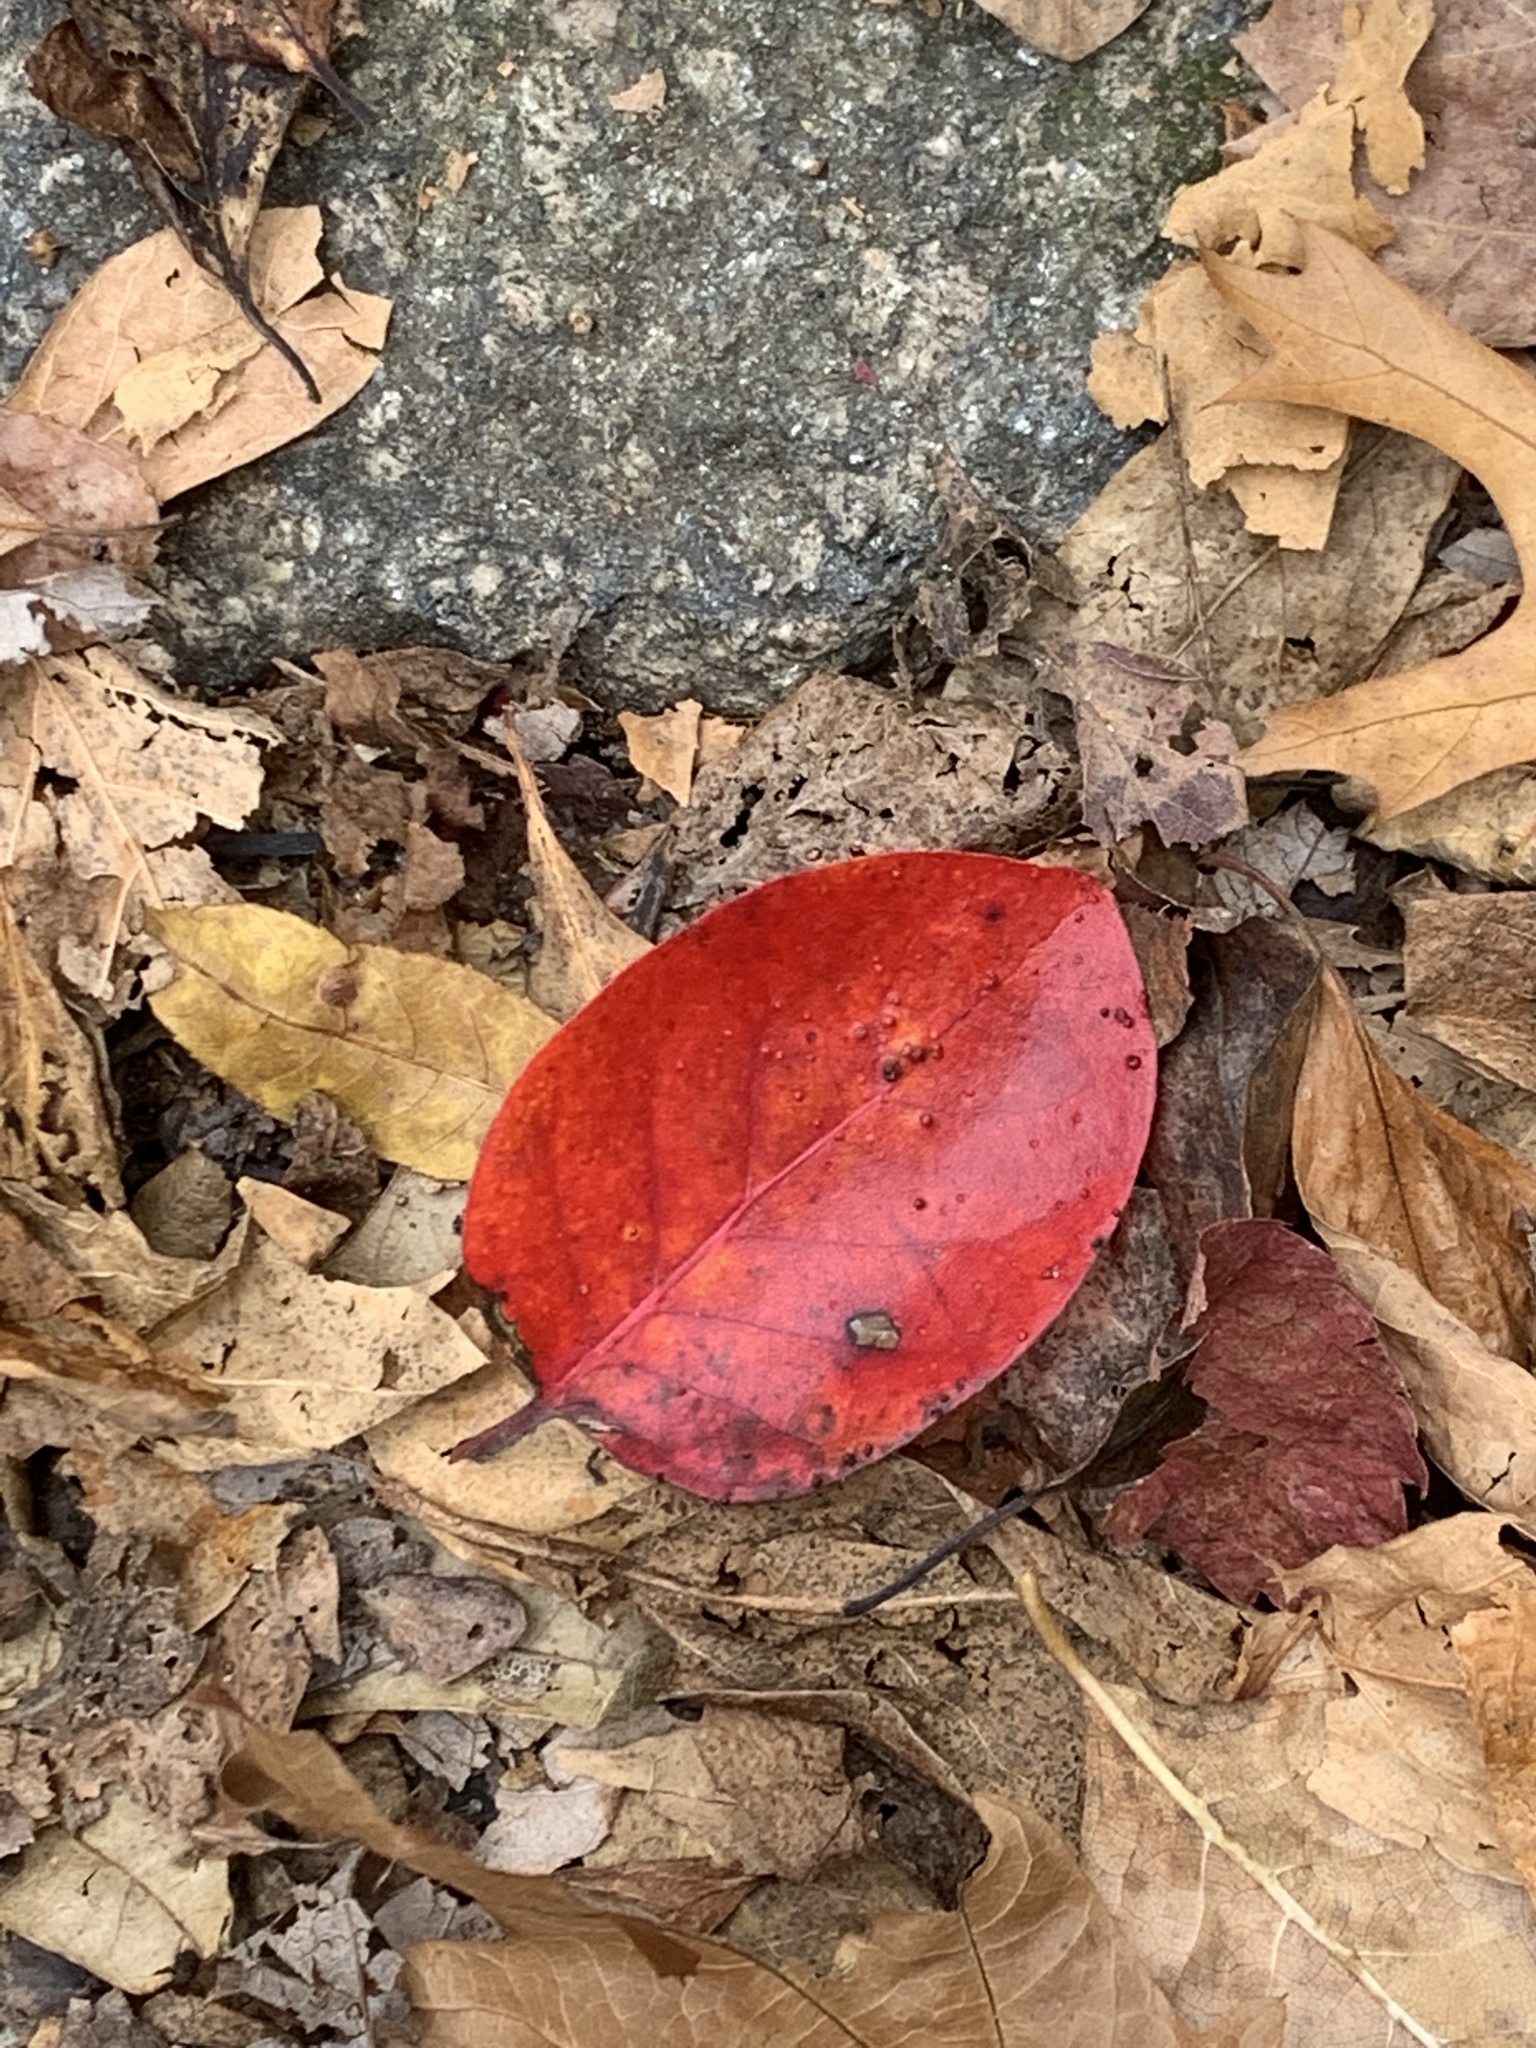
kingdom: Plantae
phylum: Tracheophyta
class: Magnoliopsida
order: Cornales
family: Nyssaceae
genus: Nyssa
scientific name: Nyssa sylvatica
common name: Black tupelo
